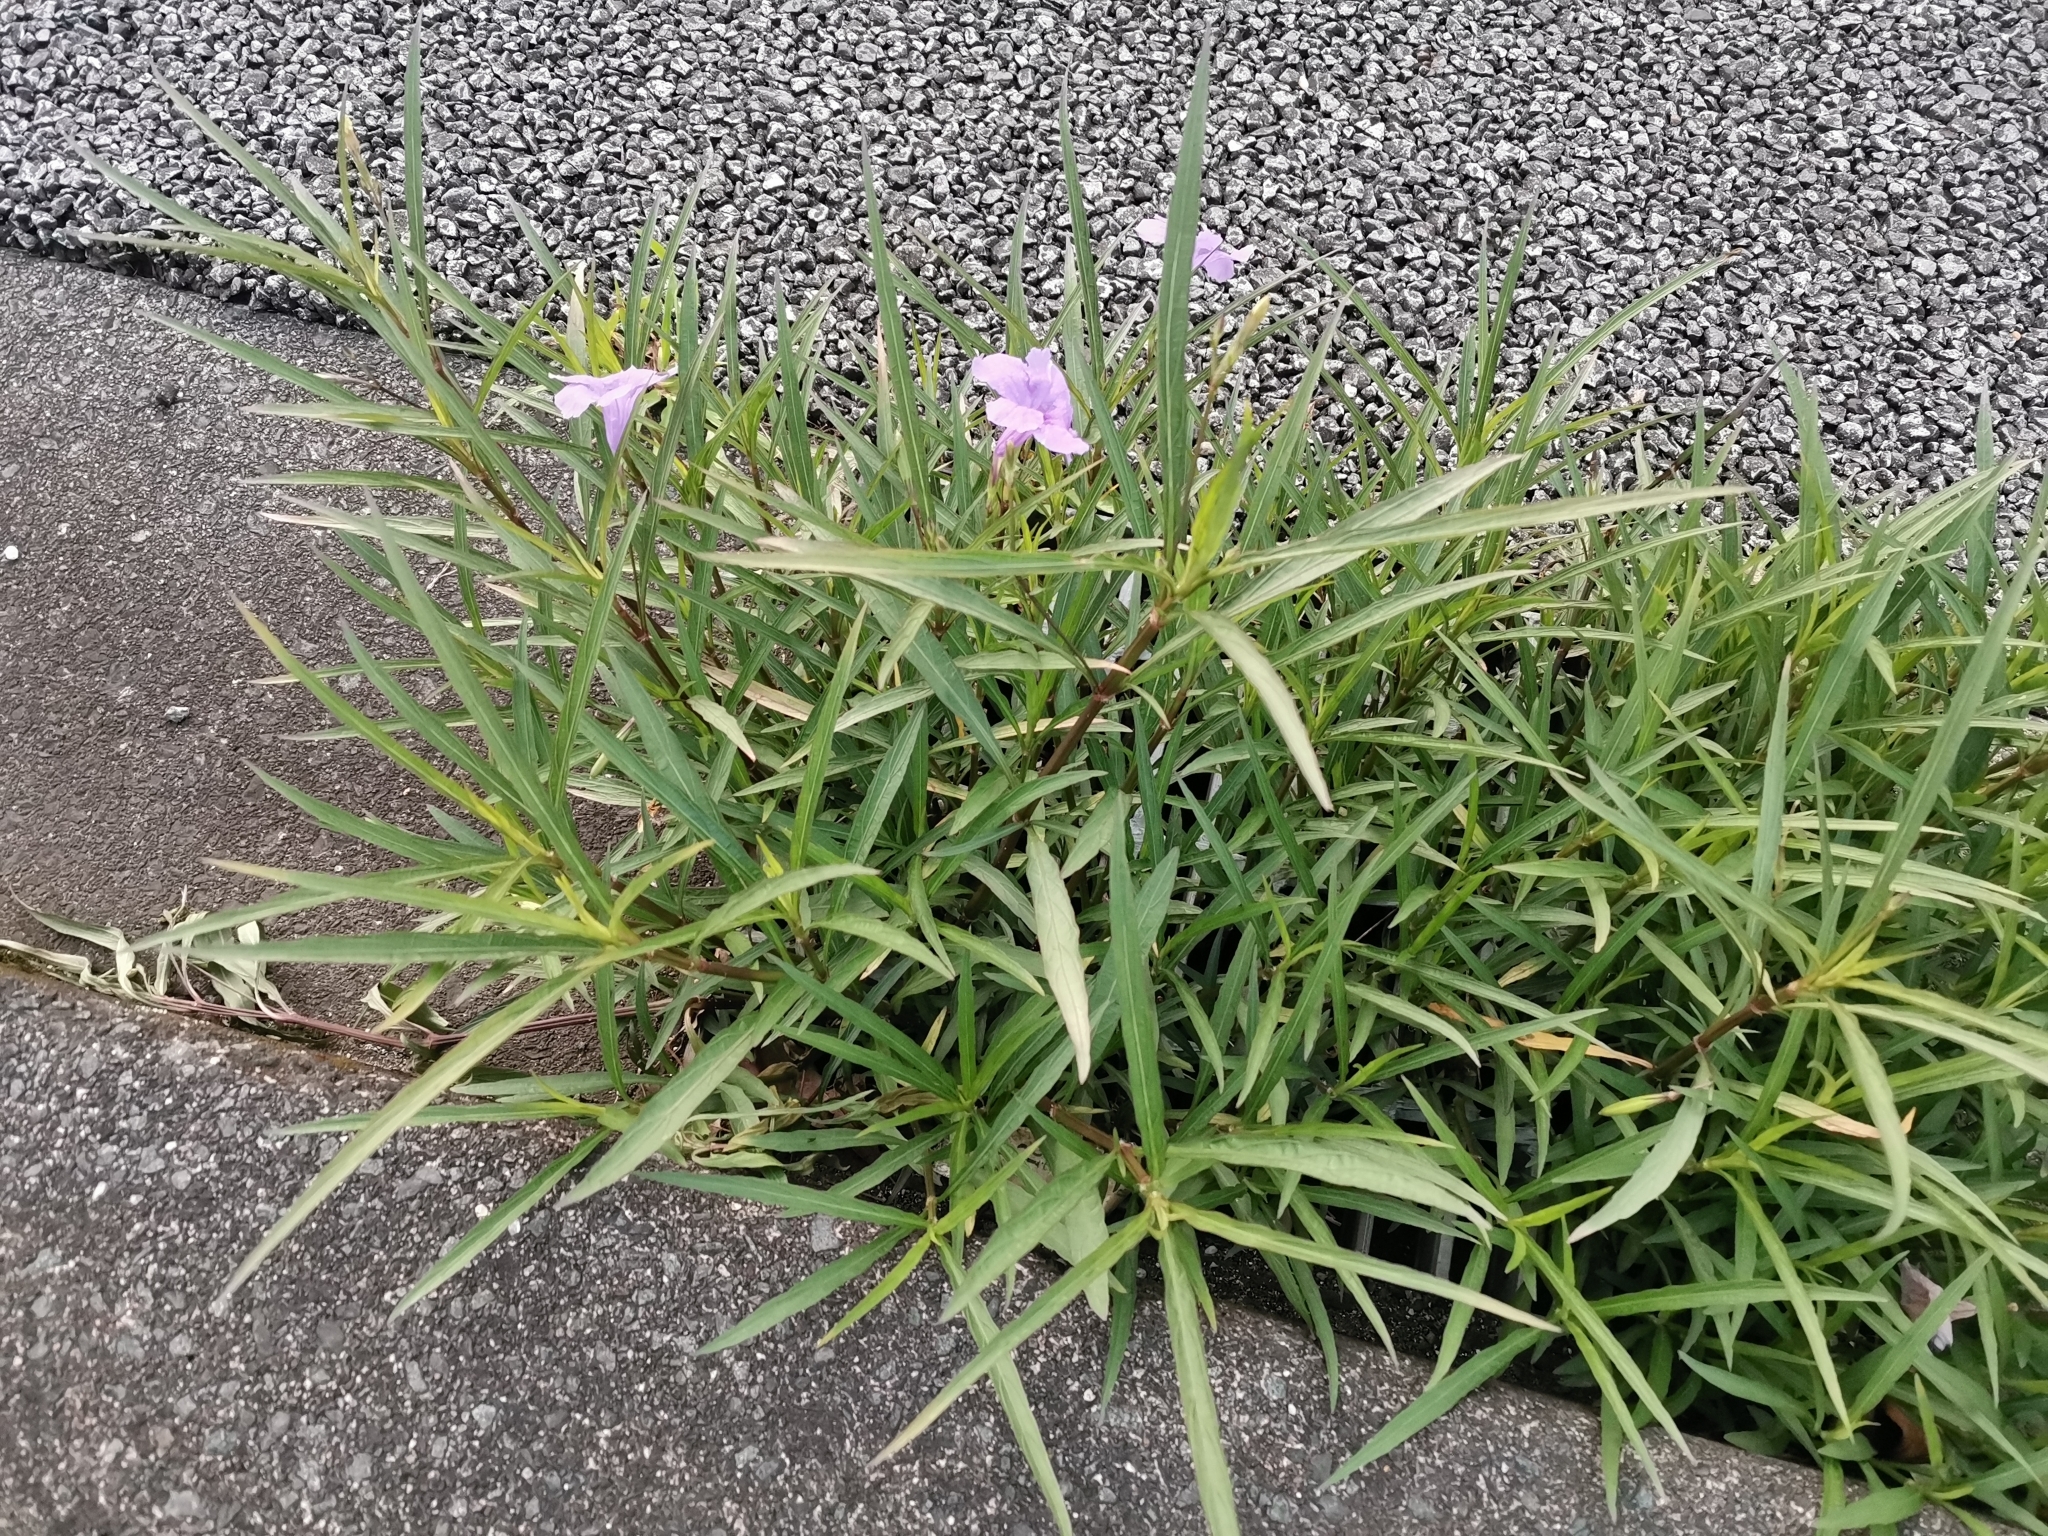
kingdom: Plantae
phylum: Tracheophyta
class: Magnoliopsida
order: Lamiales
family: Acanthaceae
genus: Ruellia
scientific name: Ruellia simplex
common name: Softseed wild petunia
